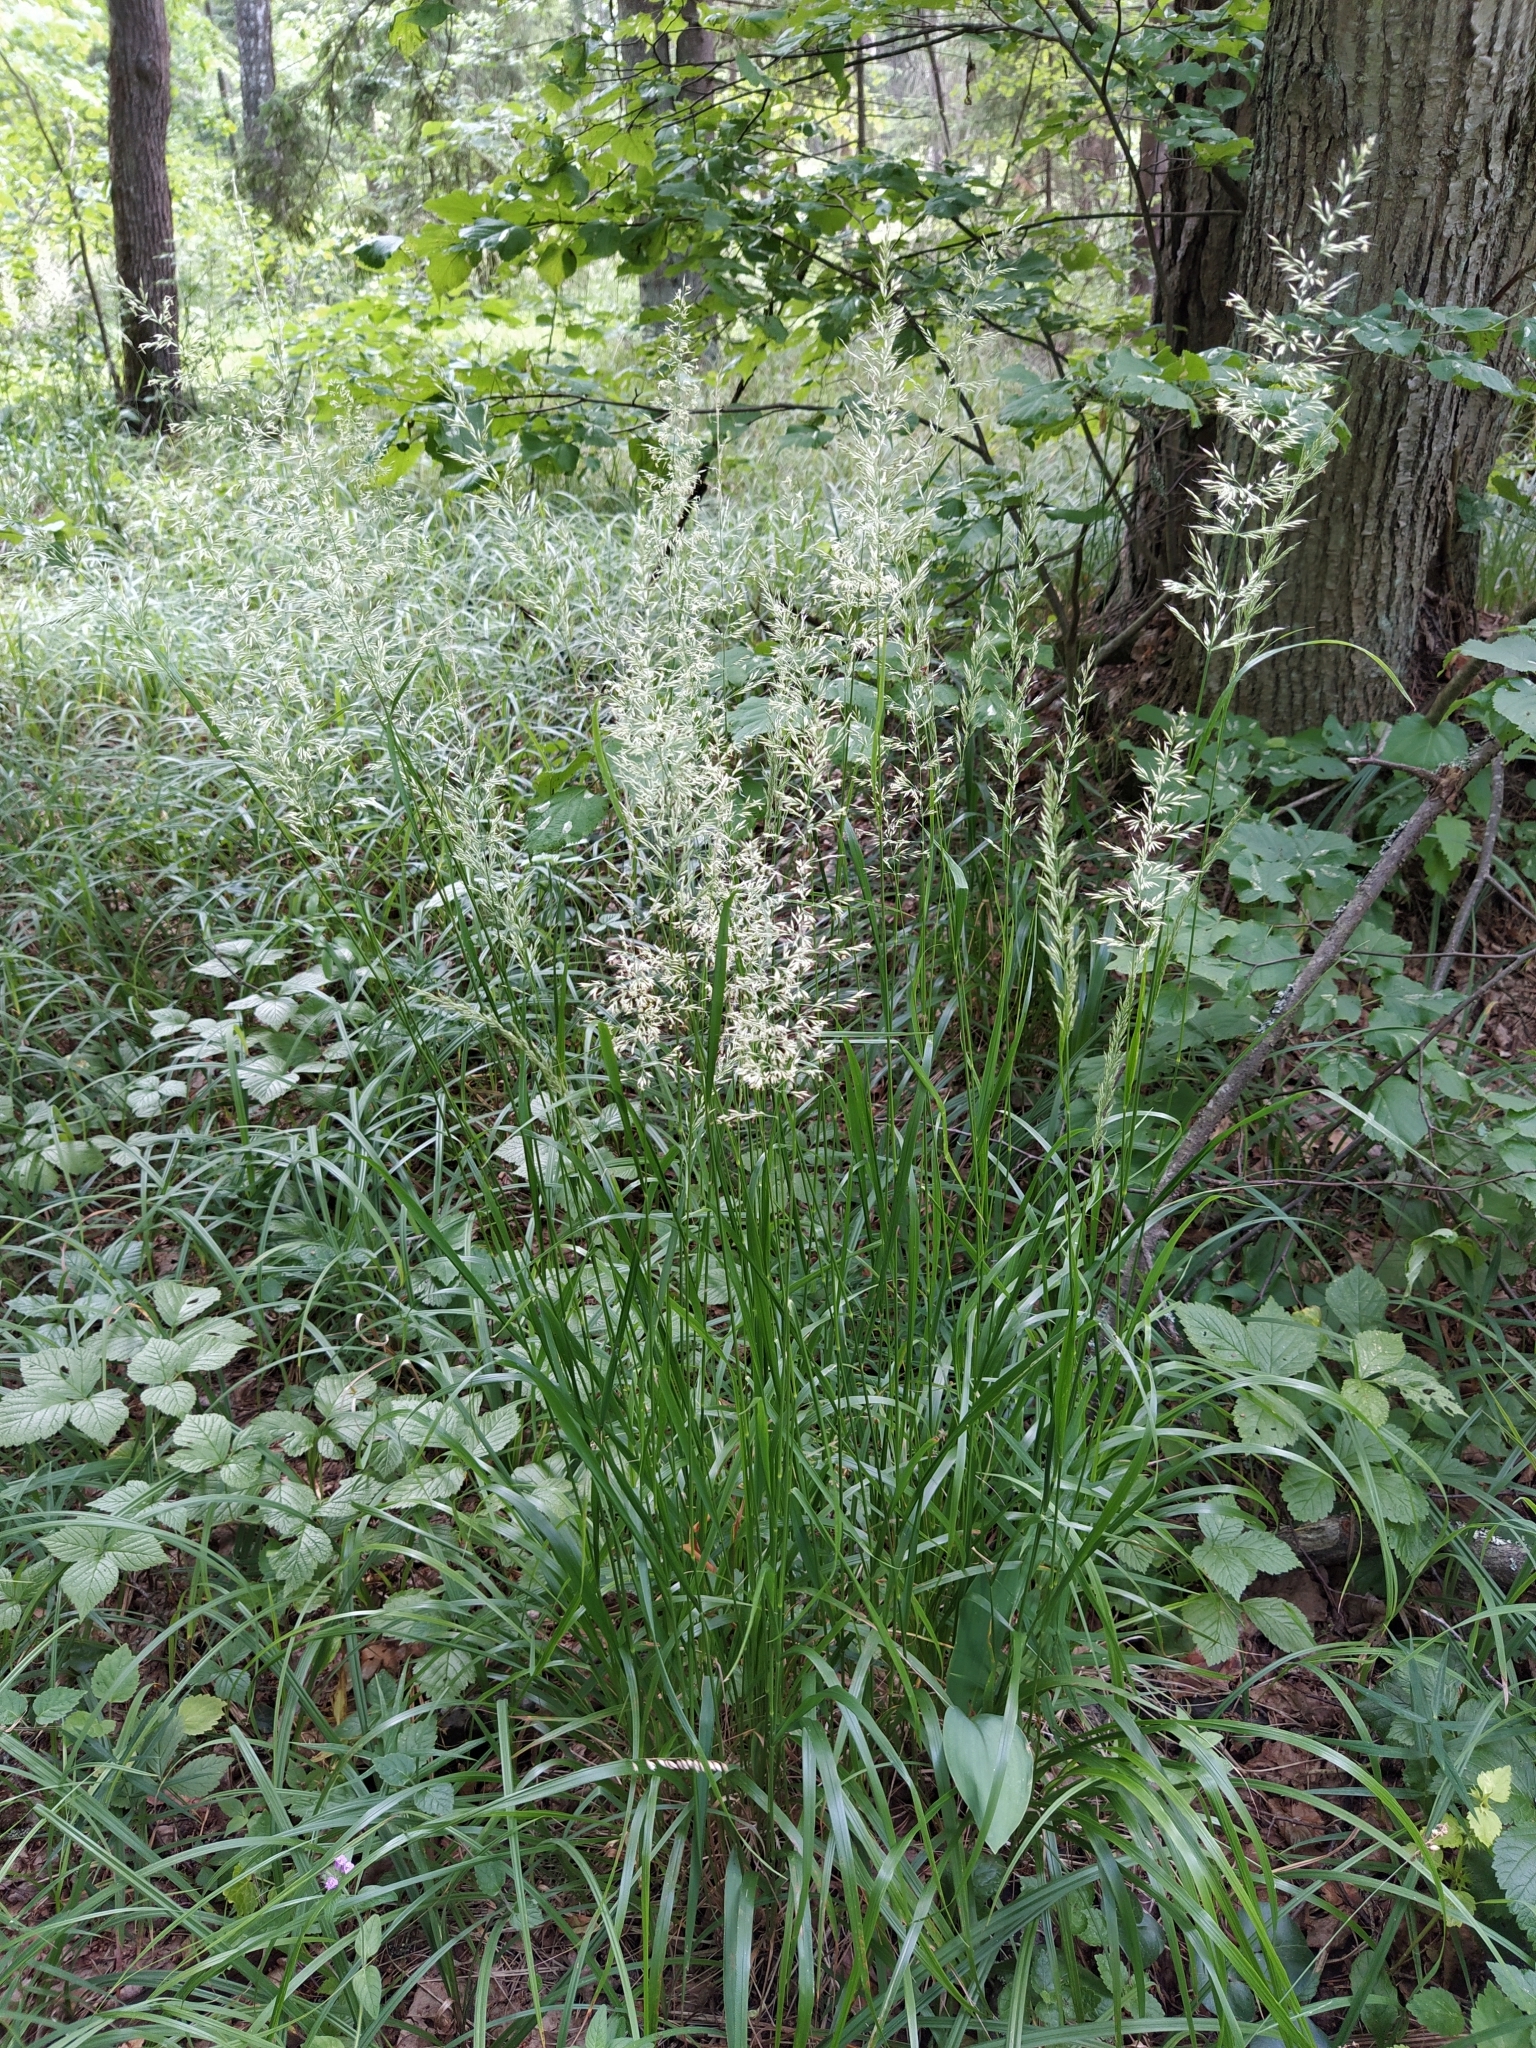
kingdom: Plantae
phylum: Tracheophyta
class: Liliopsida
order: Poales
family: Poaceae
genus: Calamagrostis
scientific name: Calamagrostis arundinacea
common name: Metskastik
